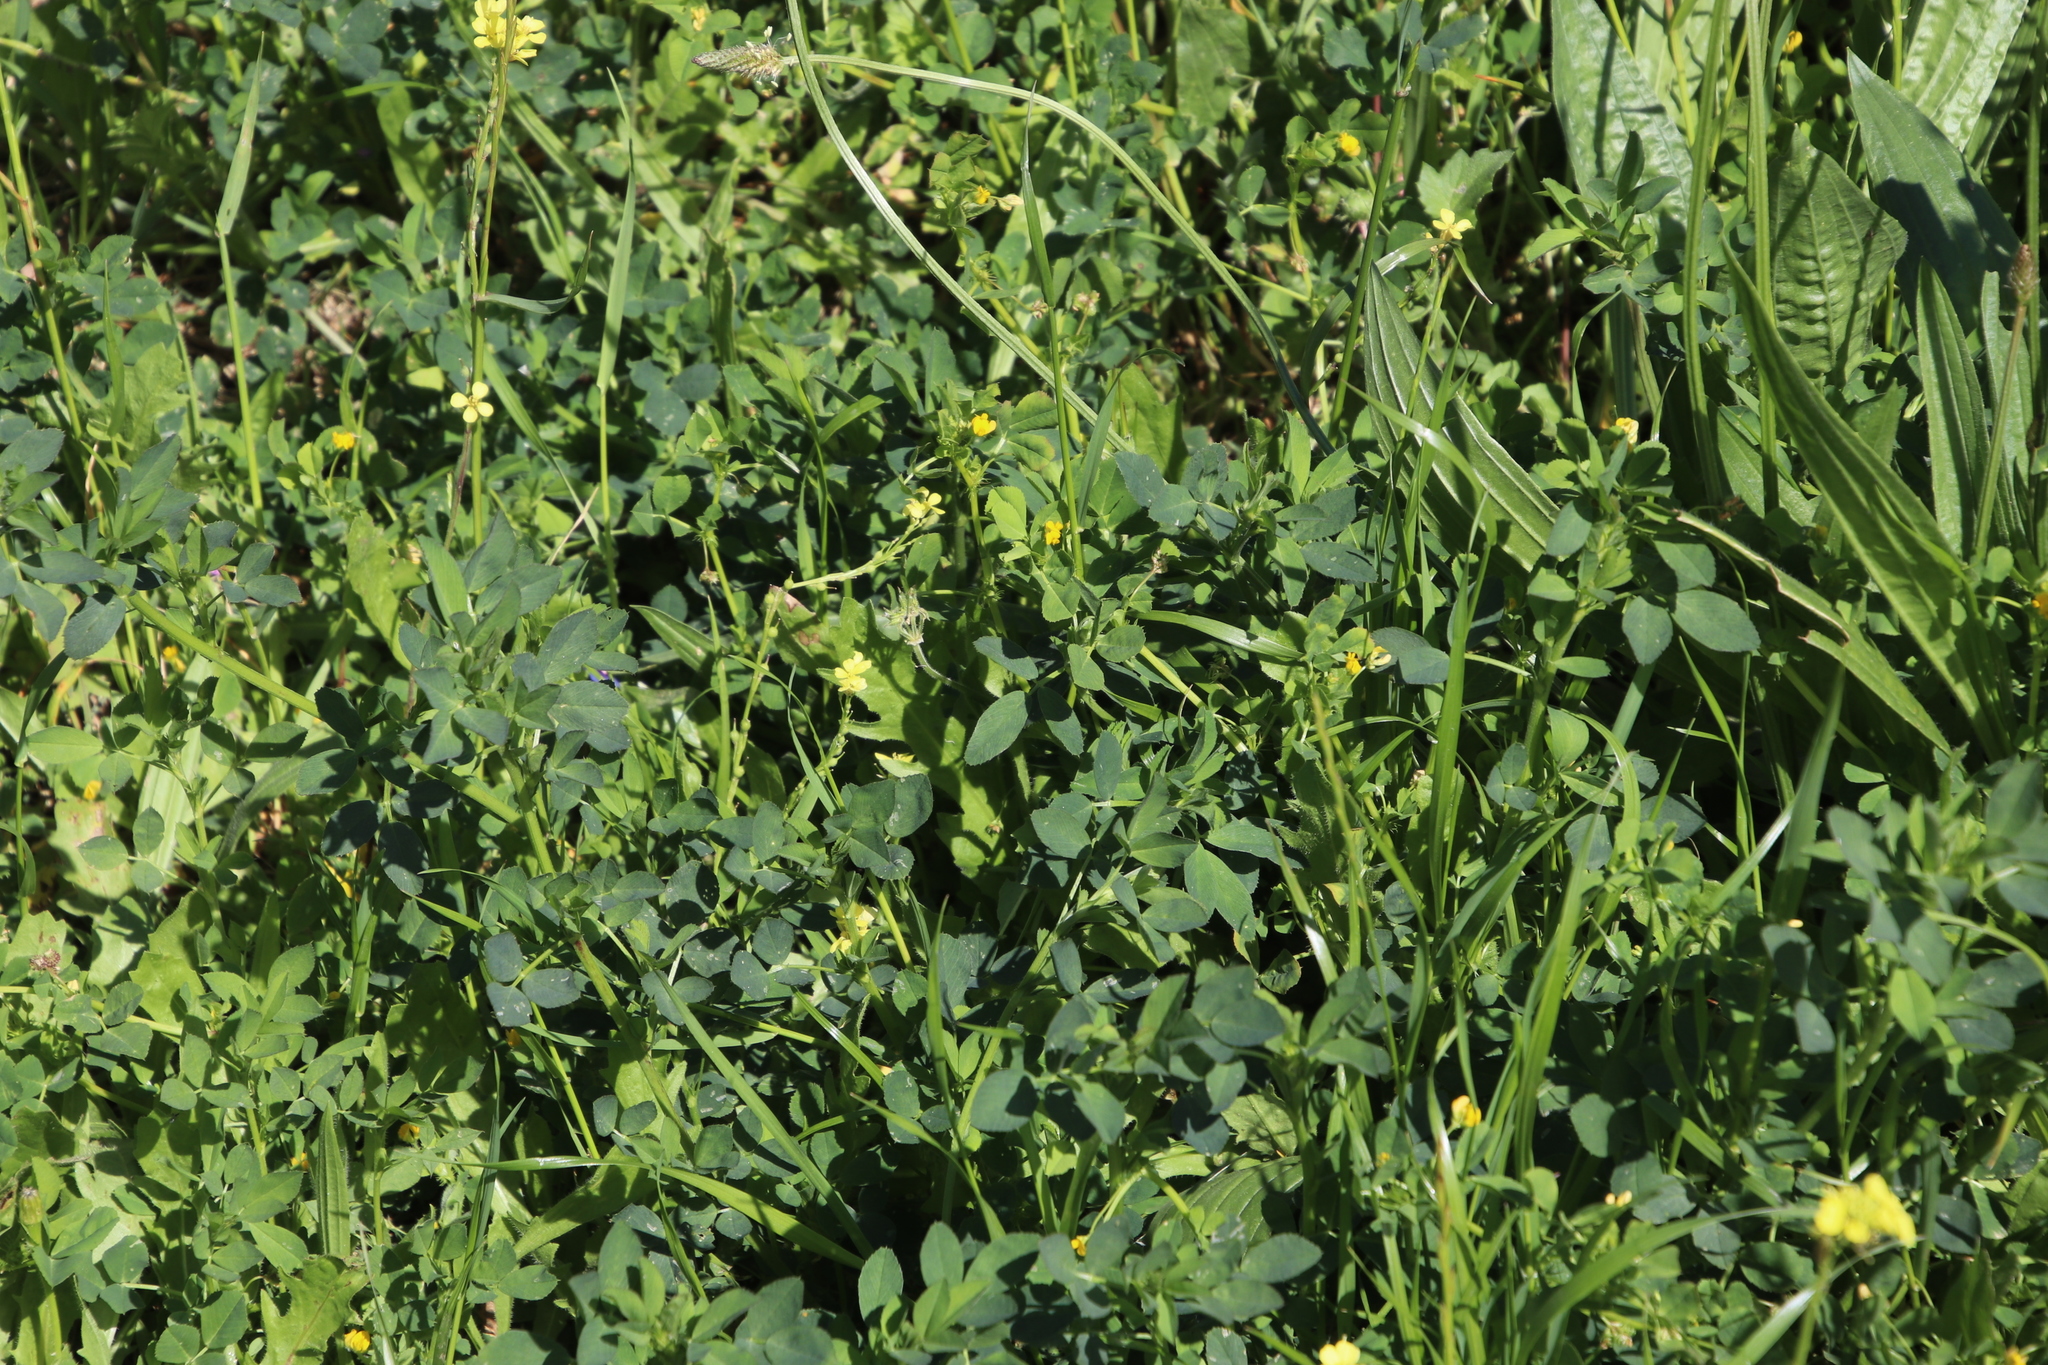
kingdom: Plantae
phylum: Tracheophyta
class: Magnoliopsida
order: Fabales
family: Fabaceae
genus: Medicago
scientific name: Medicago polymorpha
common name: Burclover
